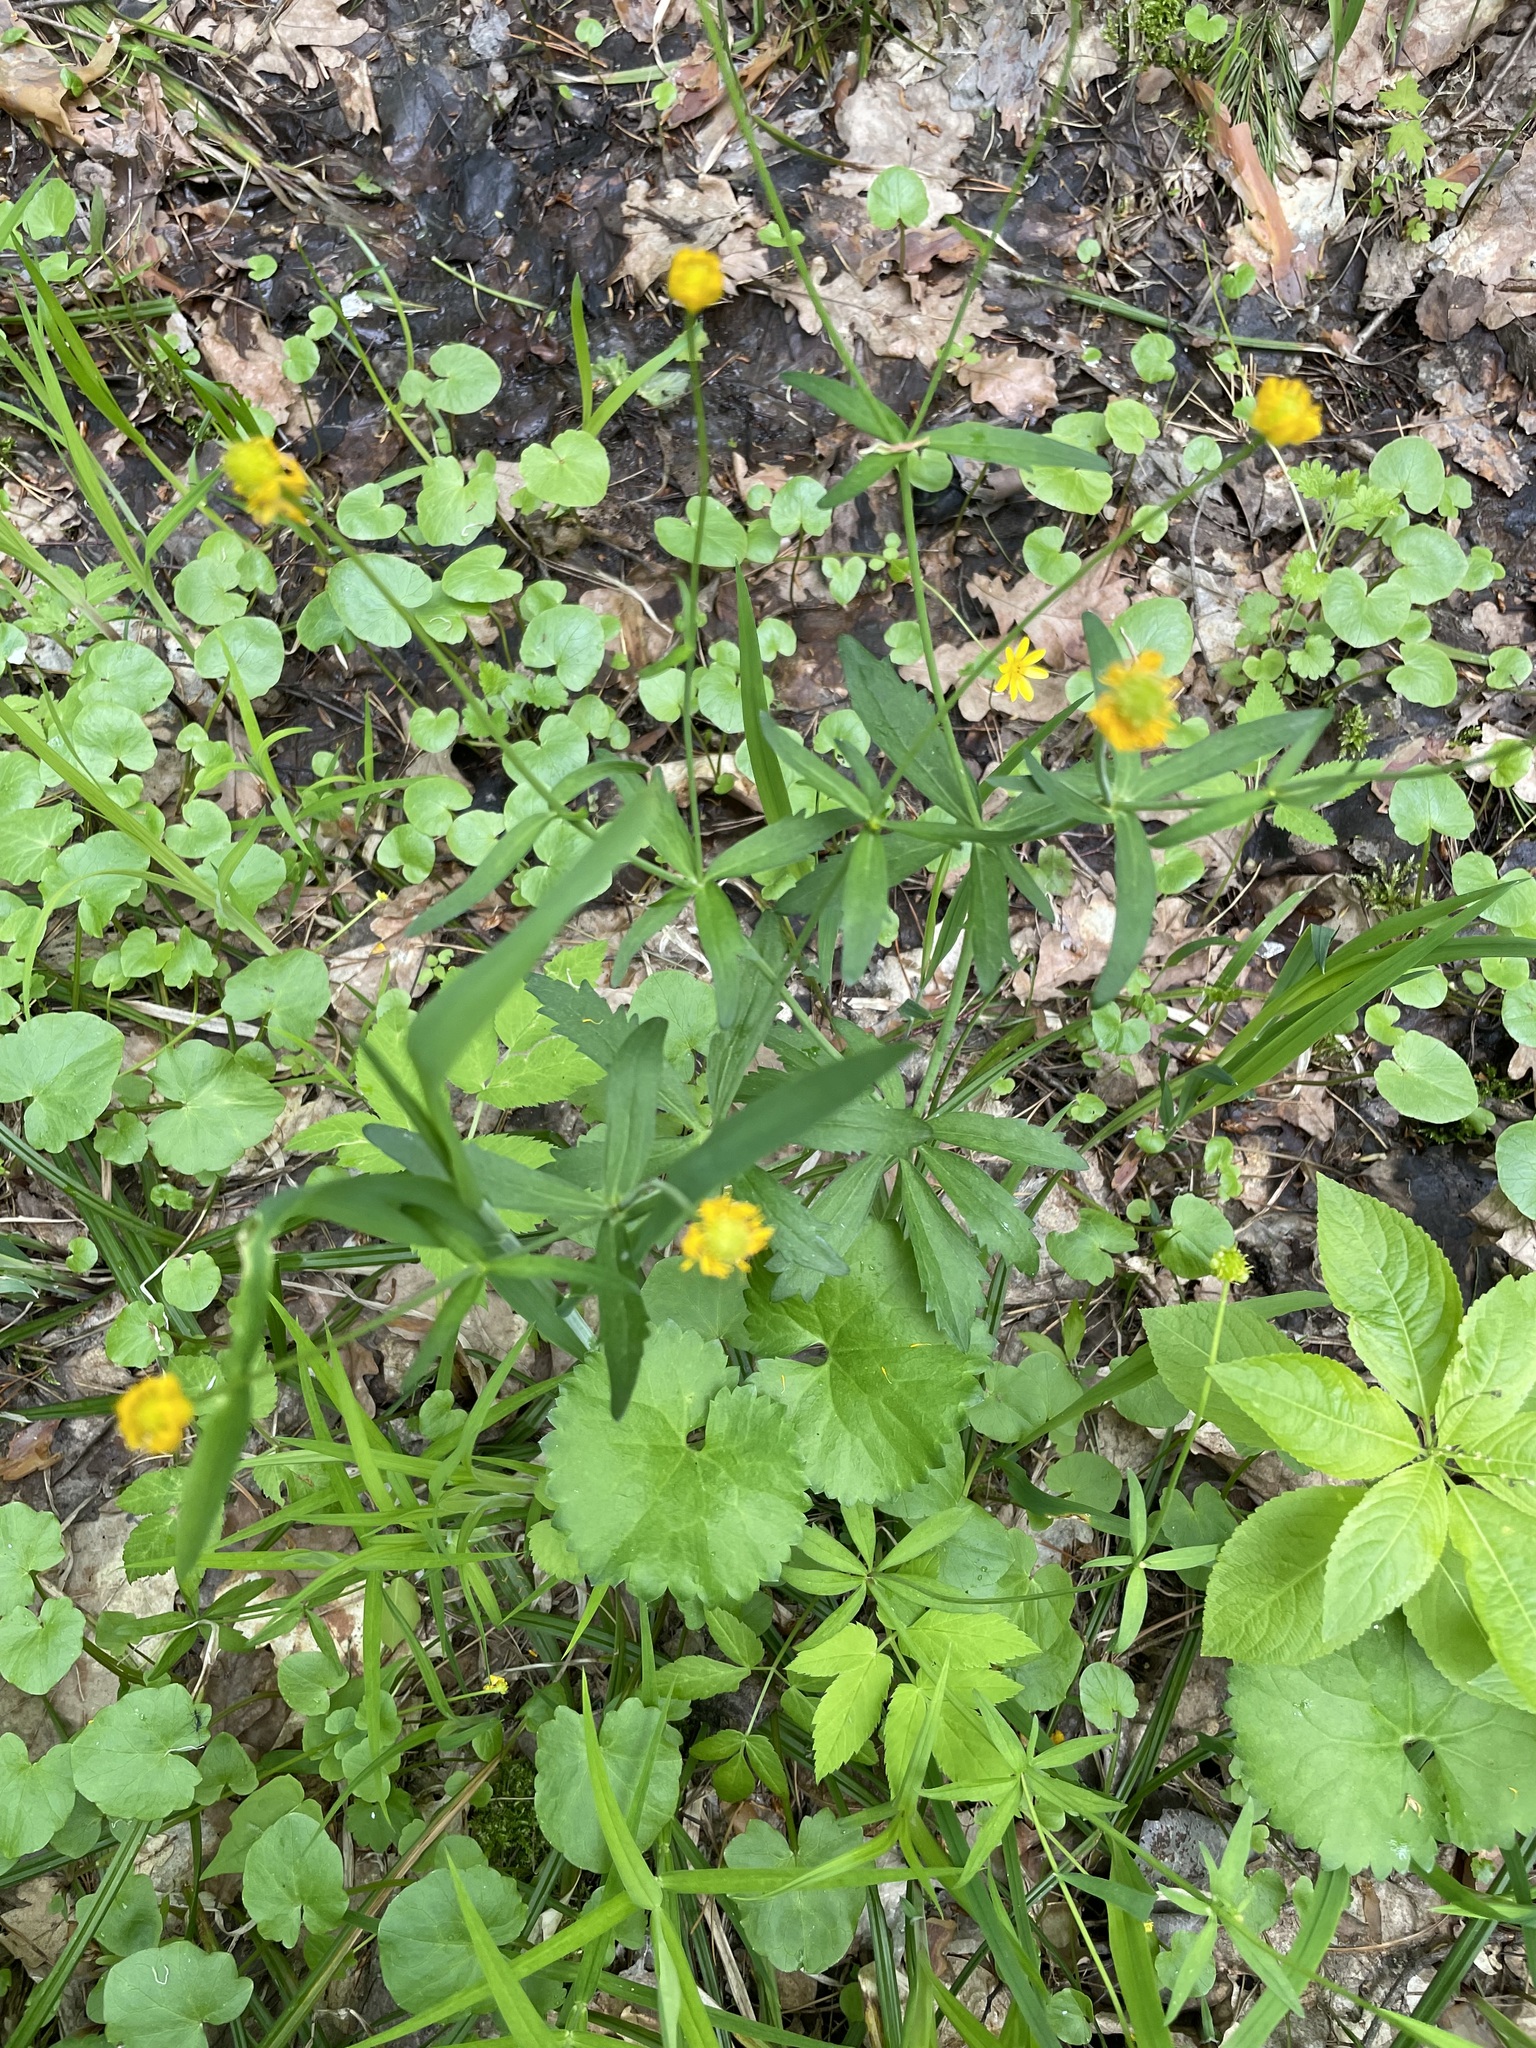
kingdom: Plantae
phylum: Tracheophyta
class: Magnoliopsida
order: Ranunculales
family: Ranunculaceae
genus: Ranunculus
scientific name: Ranunculus cassubicus
